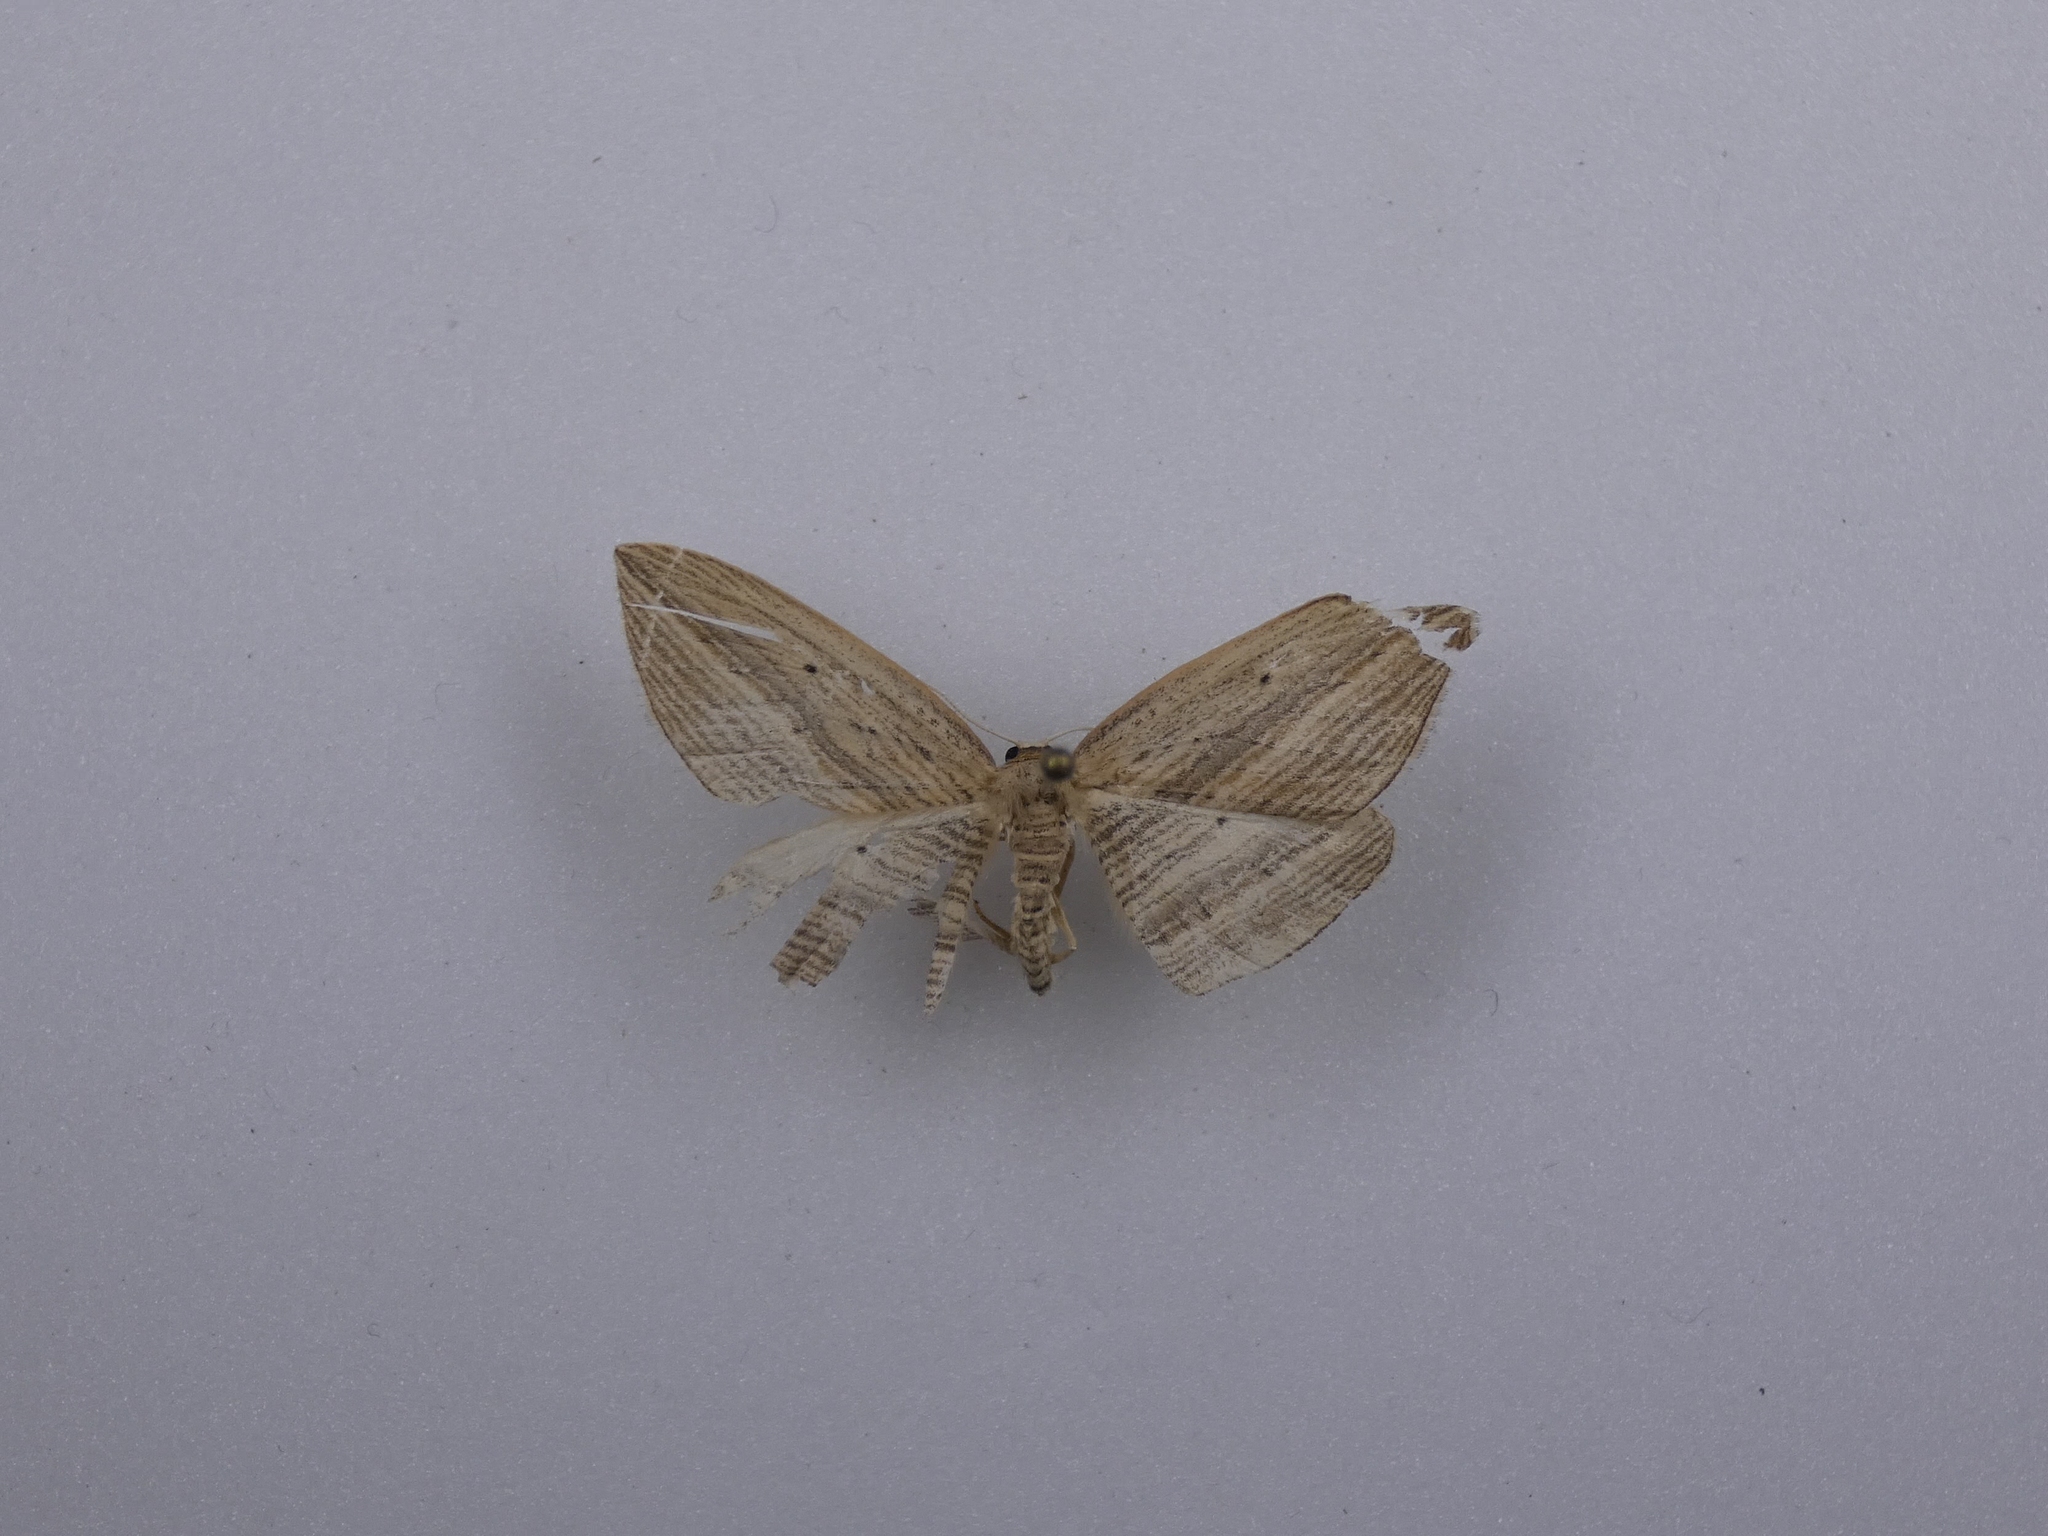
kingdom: Animalia
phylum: Arthropoda
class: Insecta
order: Lepidoptera
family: Geometridae
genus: Epiphryne
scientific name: Epiphryne verriculata
